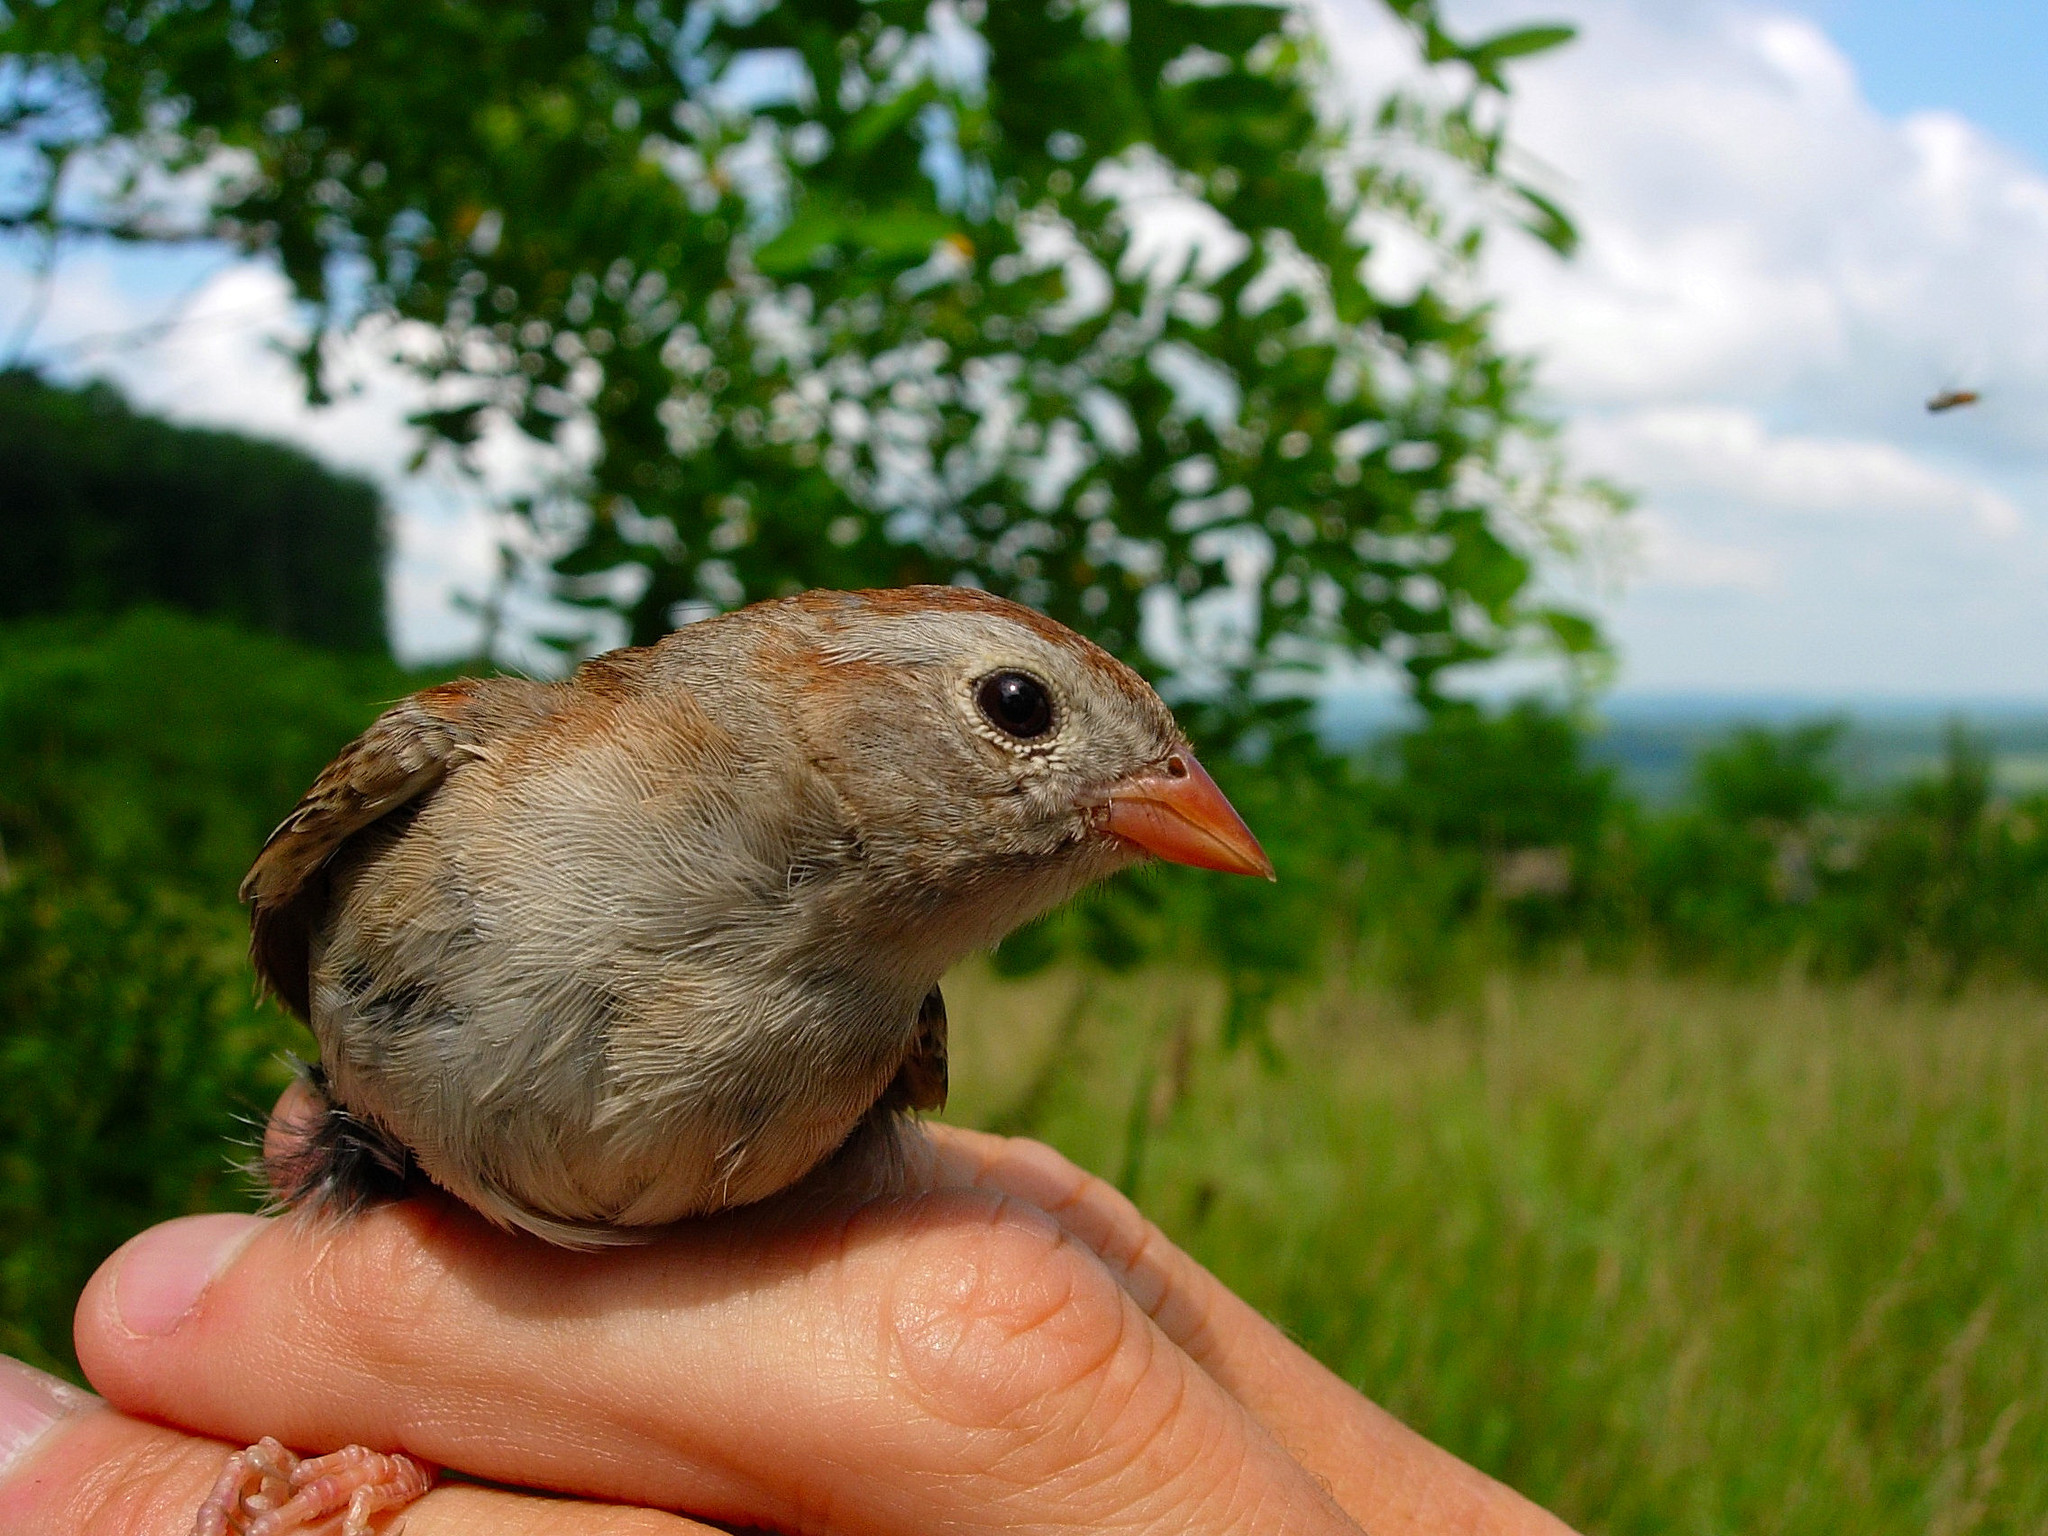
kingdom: Animalia
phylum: Chordata
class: Aves
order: Passeriformes
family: Passerellidae
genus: Spizella
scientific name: Spizella pusilla
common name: Field sparrow
